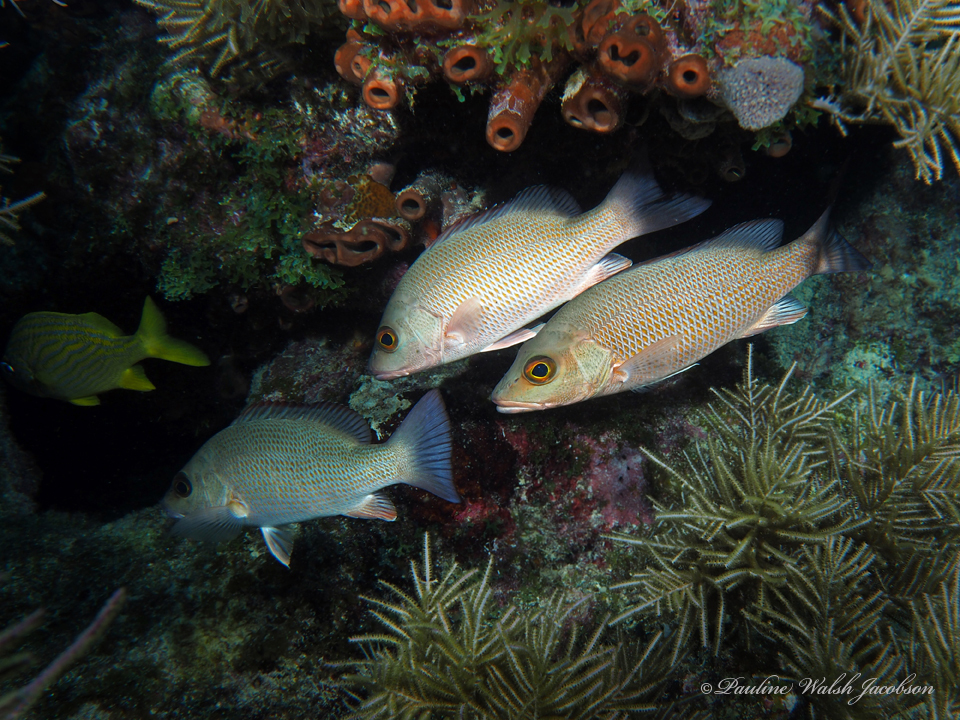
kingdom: Animalia
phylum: Chordata
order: Perciformes
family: Lutjanidae
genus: Lutjanus
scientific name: Lutjanus griseus
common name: Gray snapper
